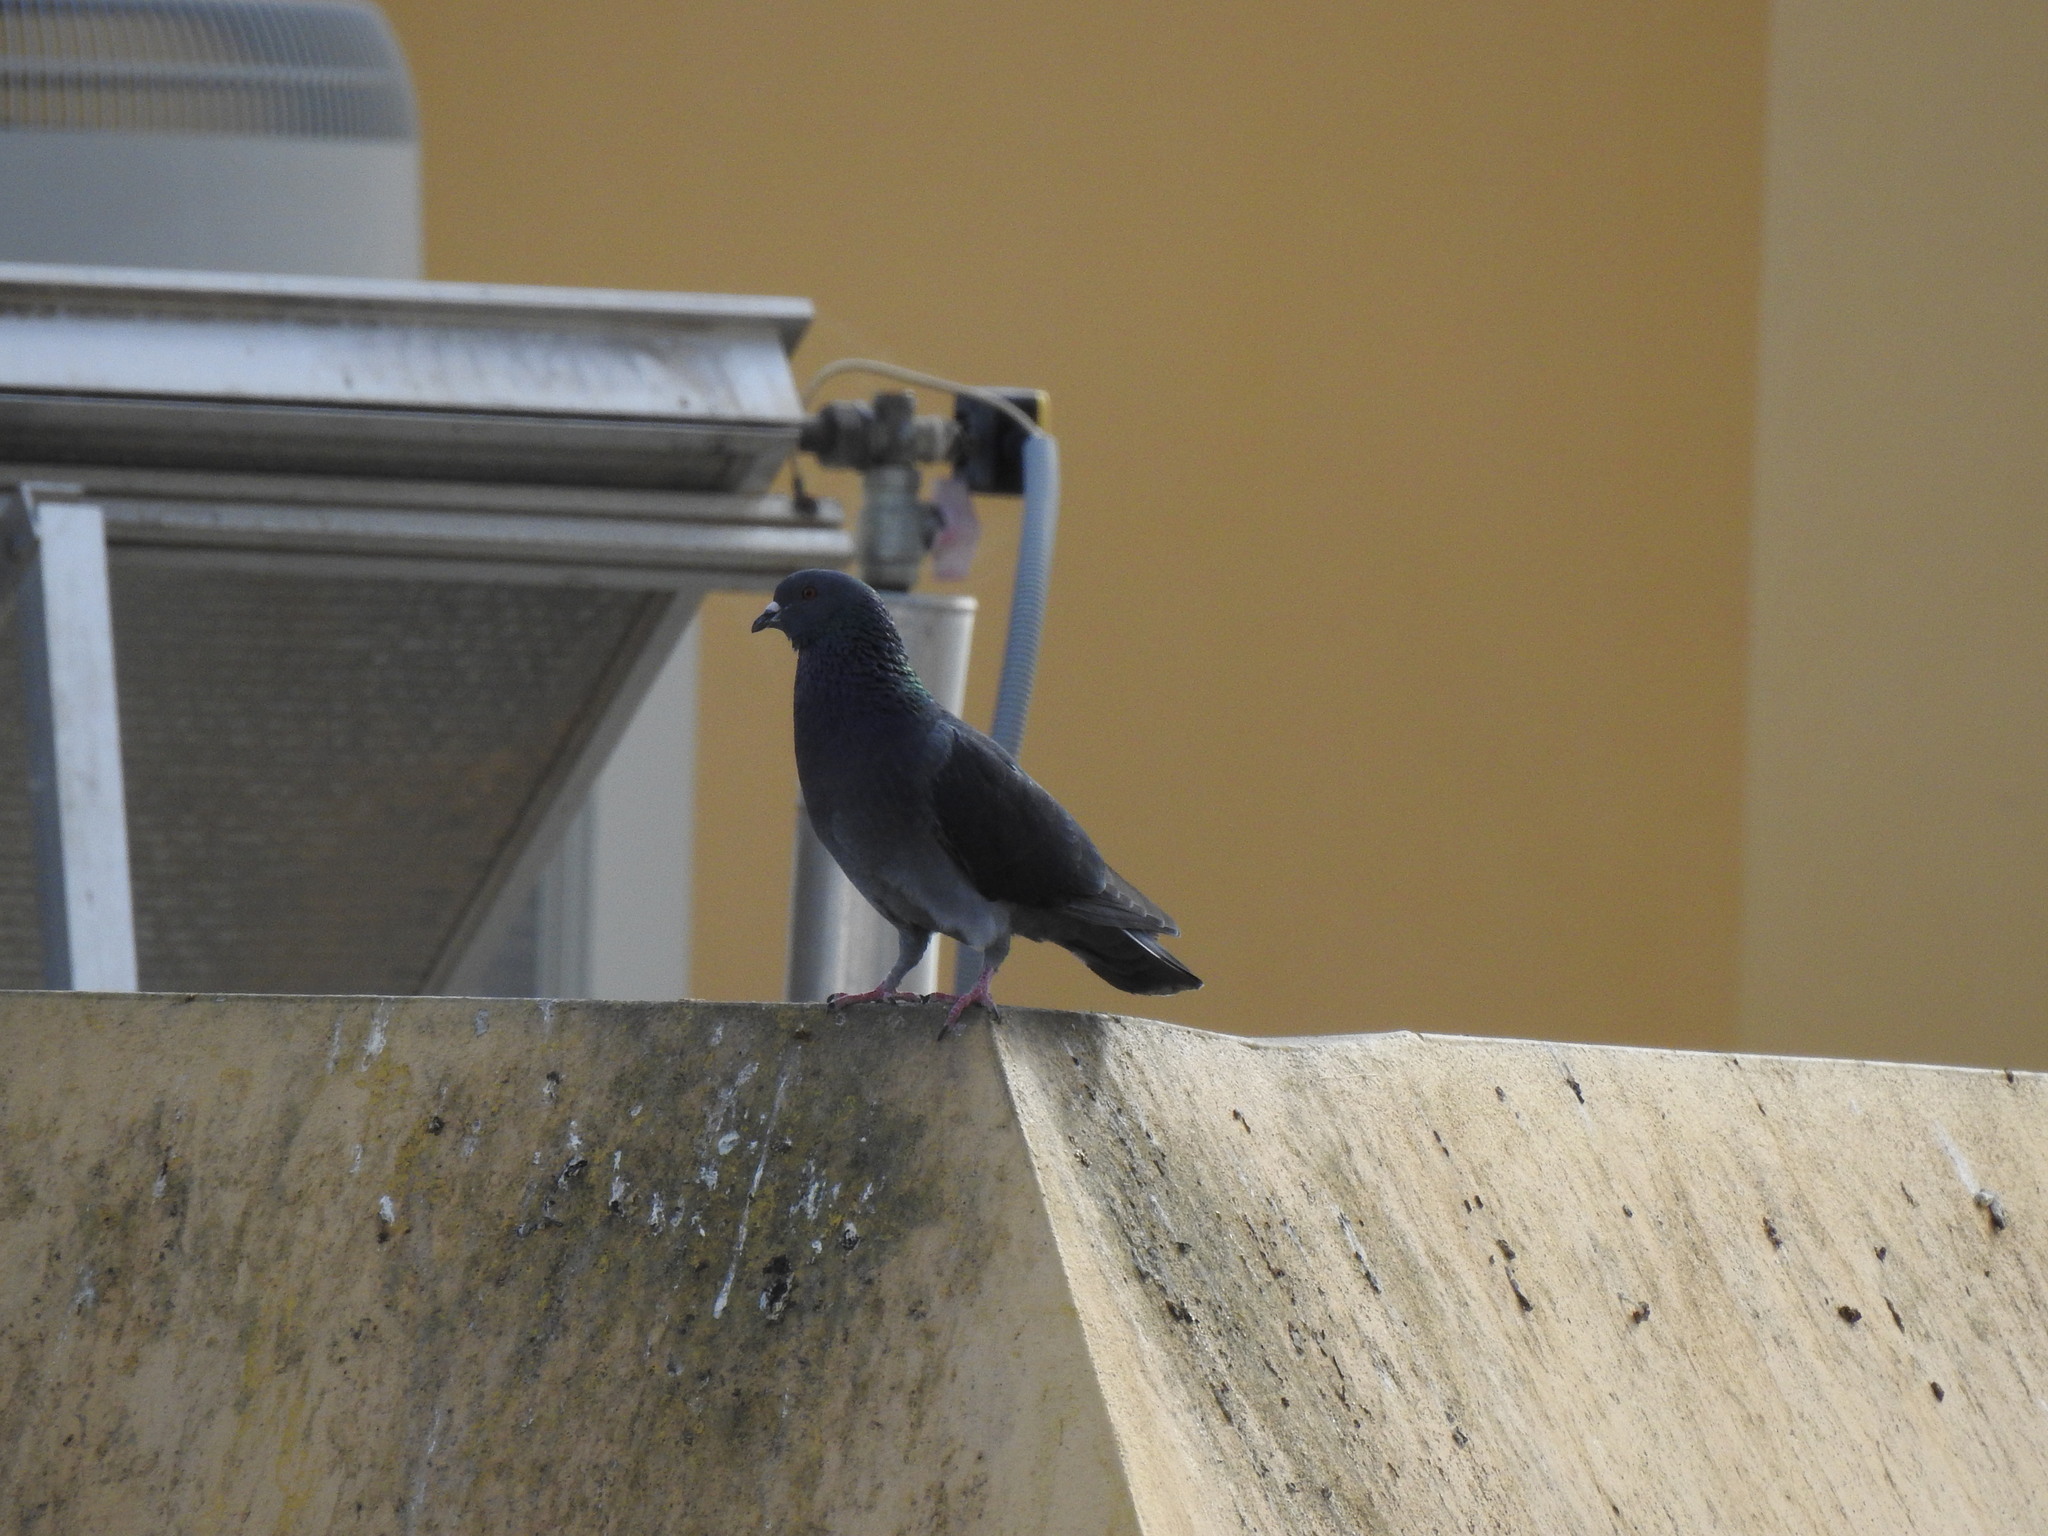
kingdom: Animalia
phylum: Chordata
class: Aves
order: Columbiformes
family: Columbidae
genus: Columba
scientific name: Columba livia
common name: Rock pigeon
